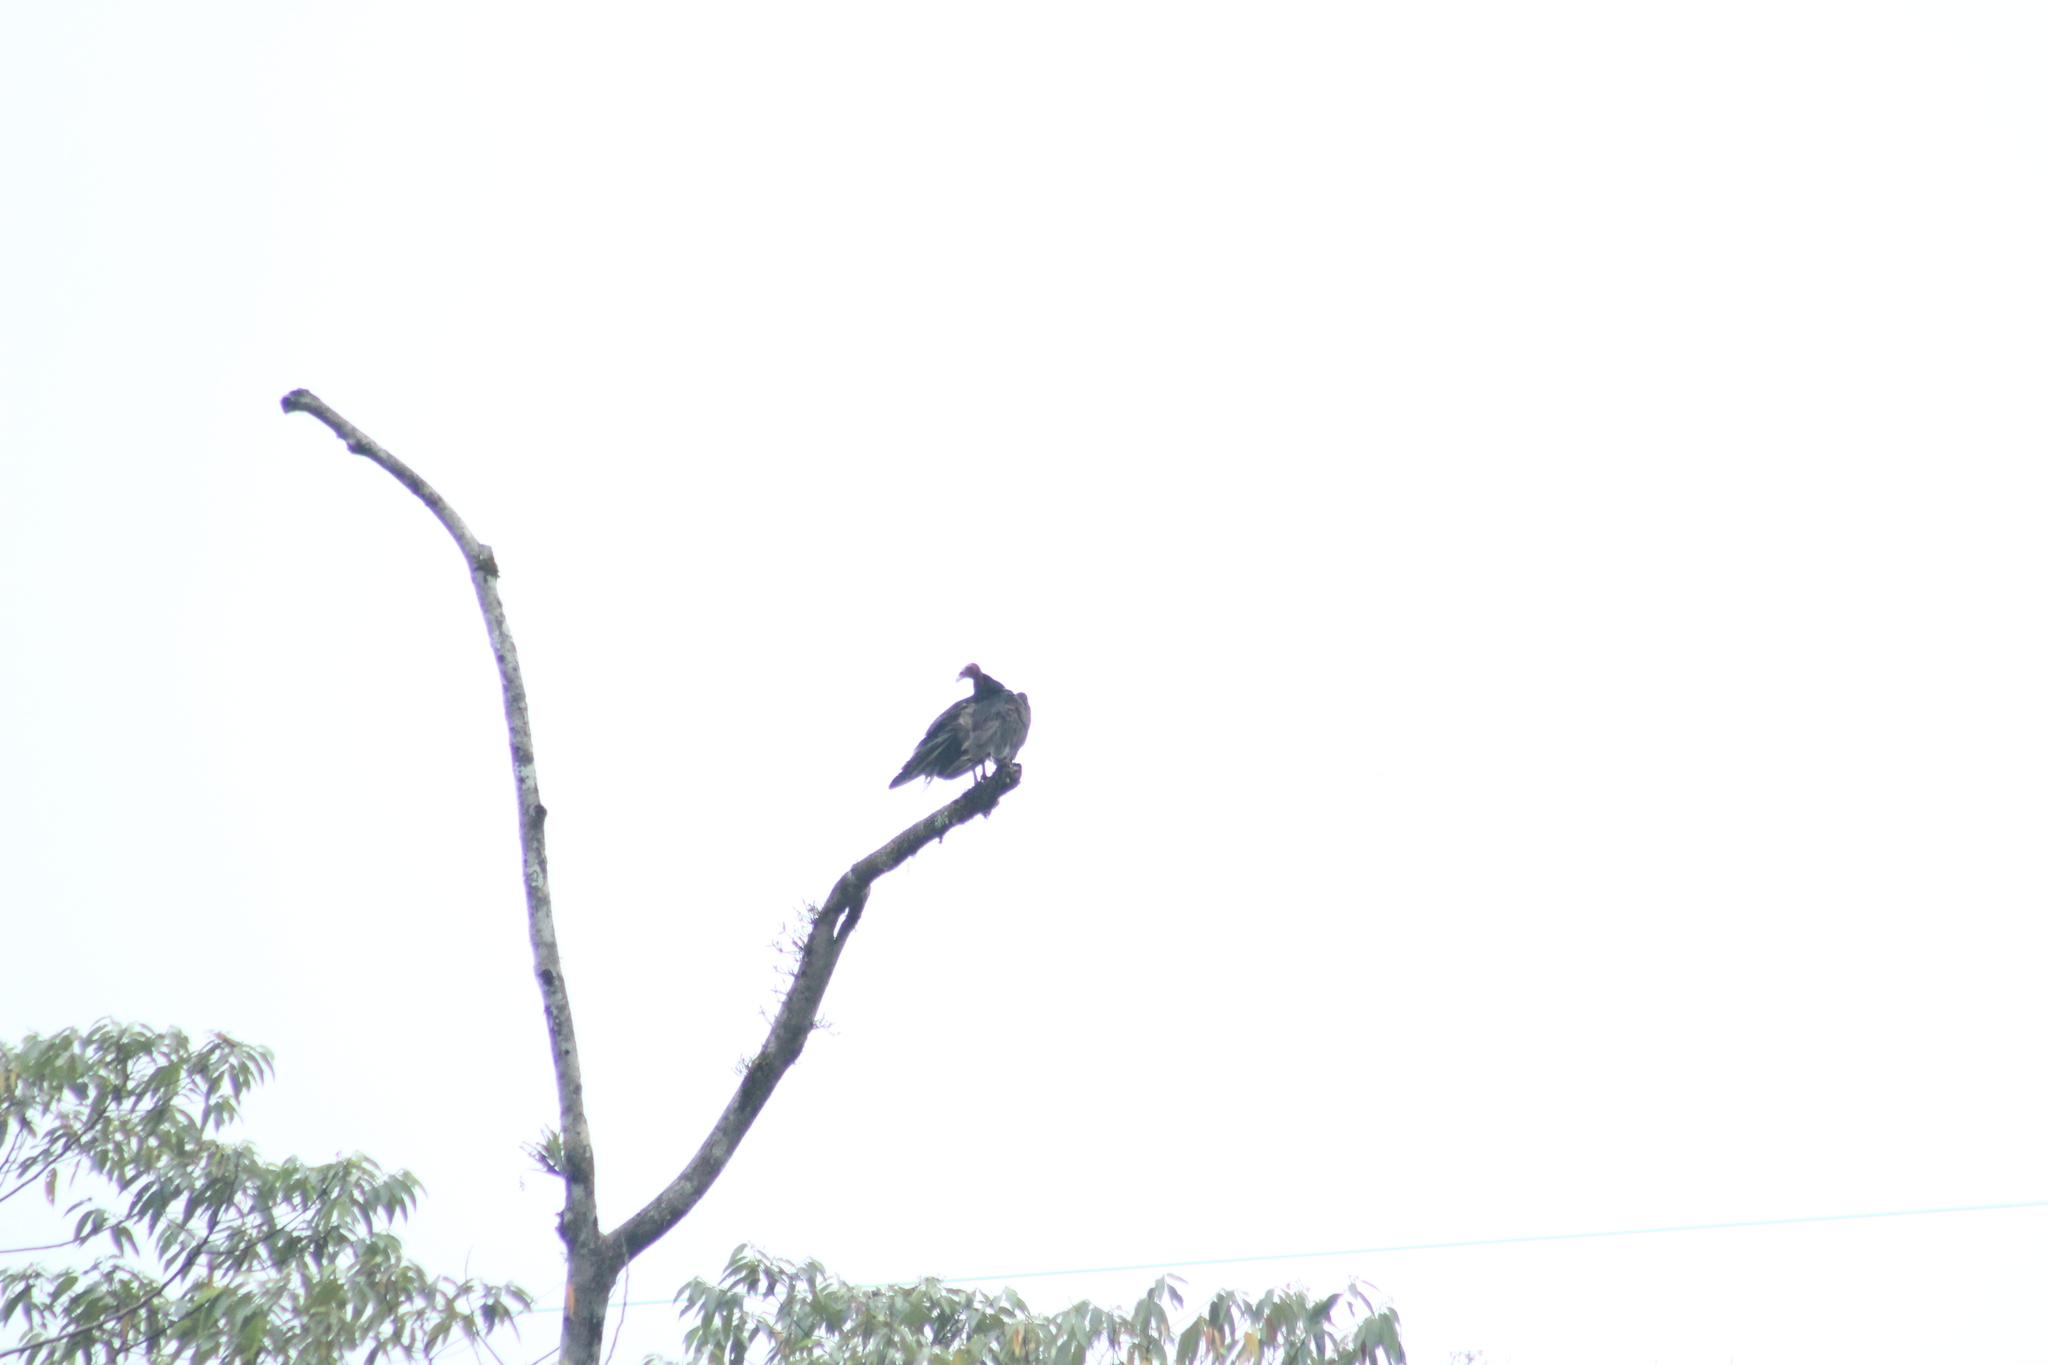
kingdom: Animalia
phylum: Chordata
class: Aves
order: Accipitriformes
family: Cathartidae
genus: Cathartes
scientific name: Cathartes aura
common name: Turkey vulture
